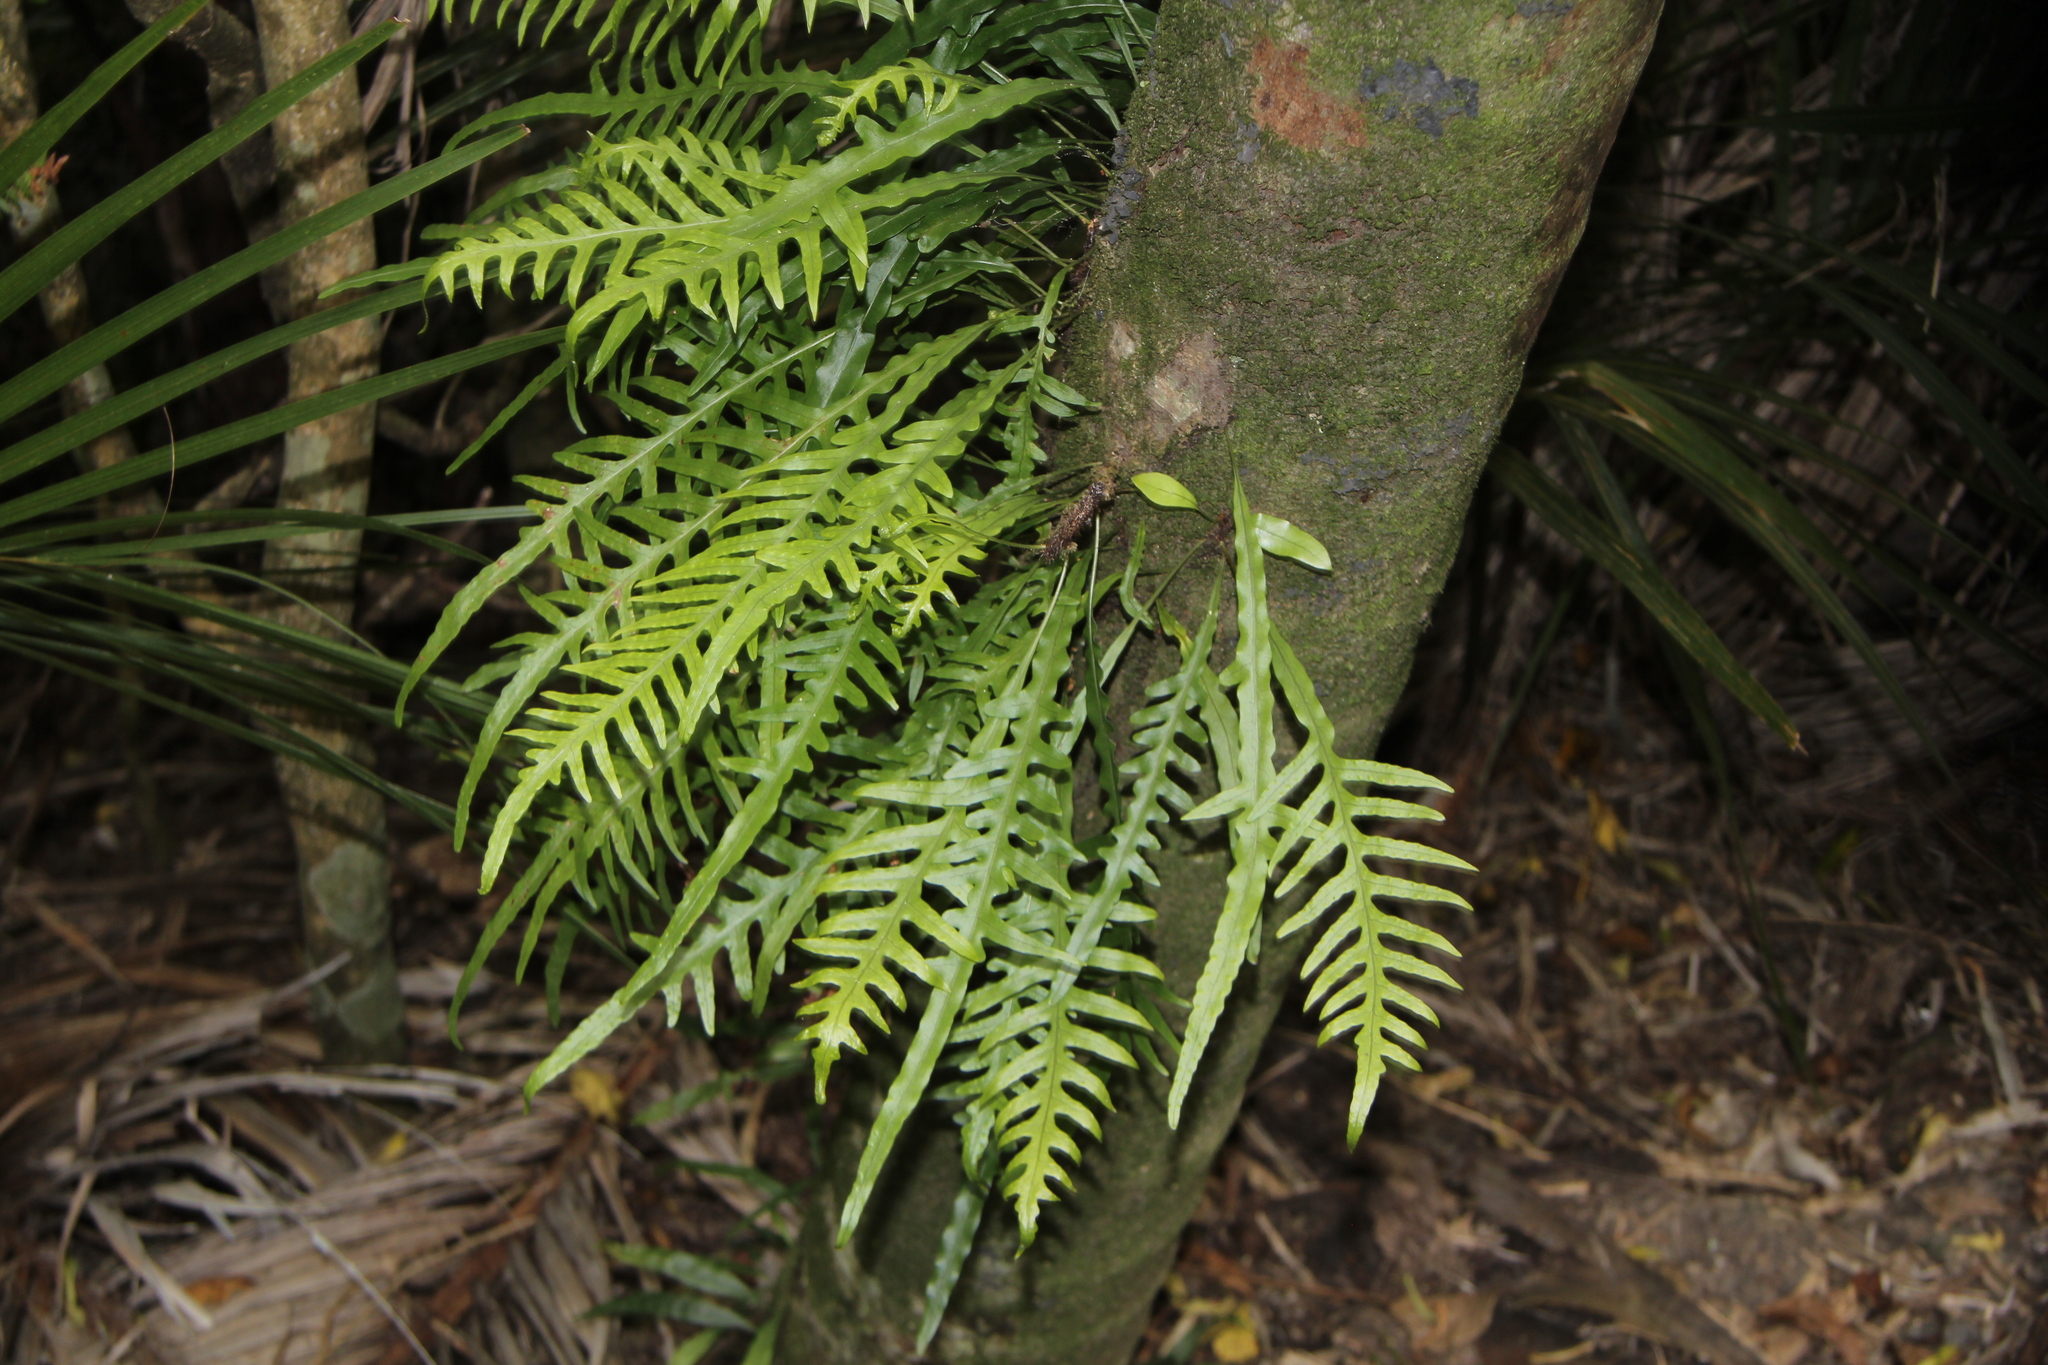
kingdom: Plantae
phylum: Tracheophyta
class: Polypodiopsida
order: Polypodiales
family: Polypodiaceae
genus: Lecanopteris
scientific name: Lecanopteris scandens
